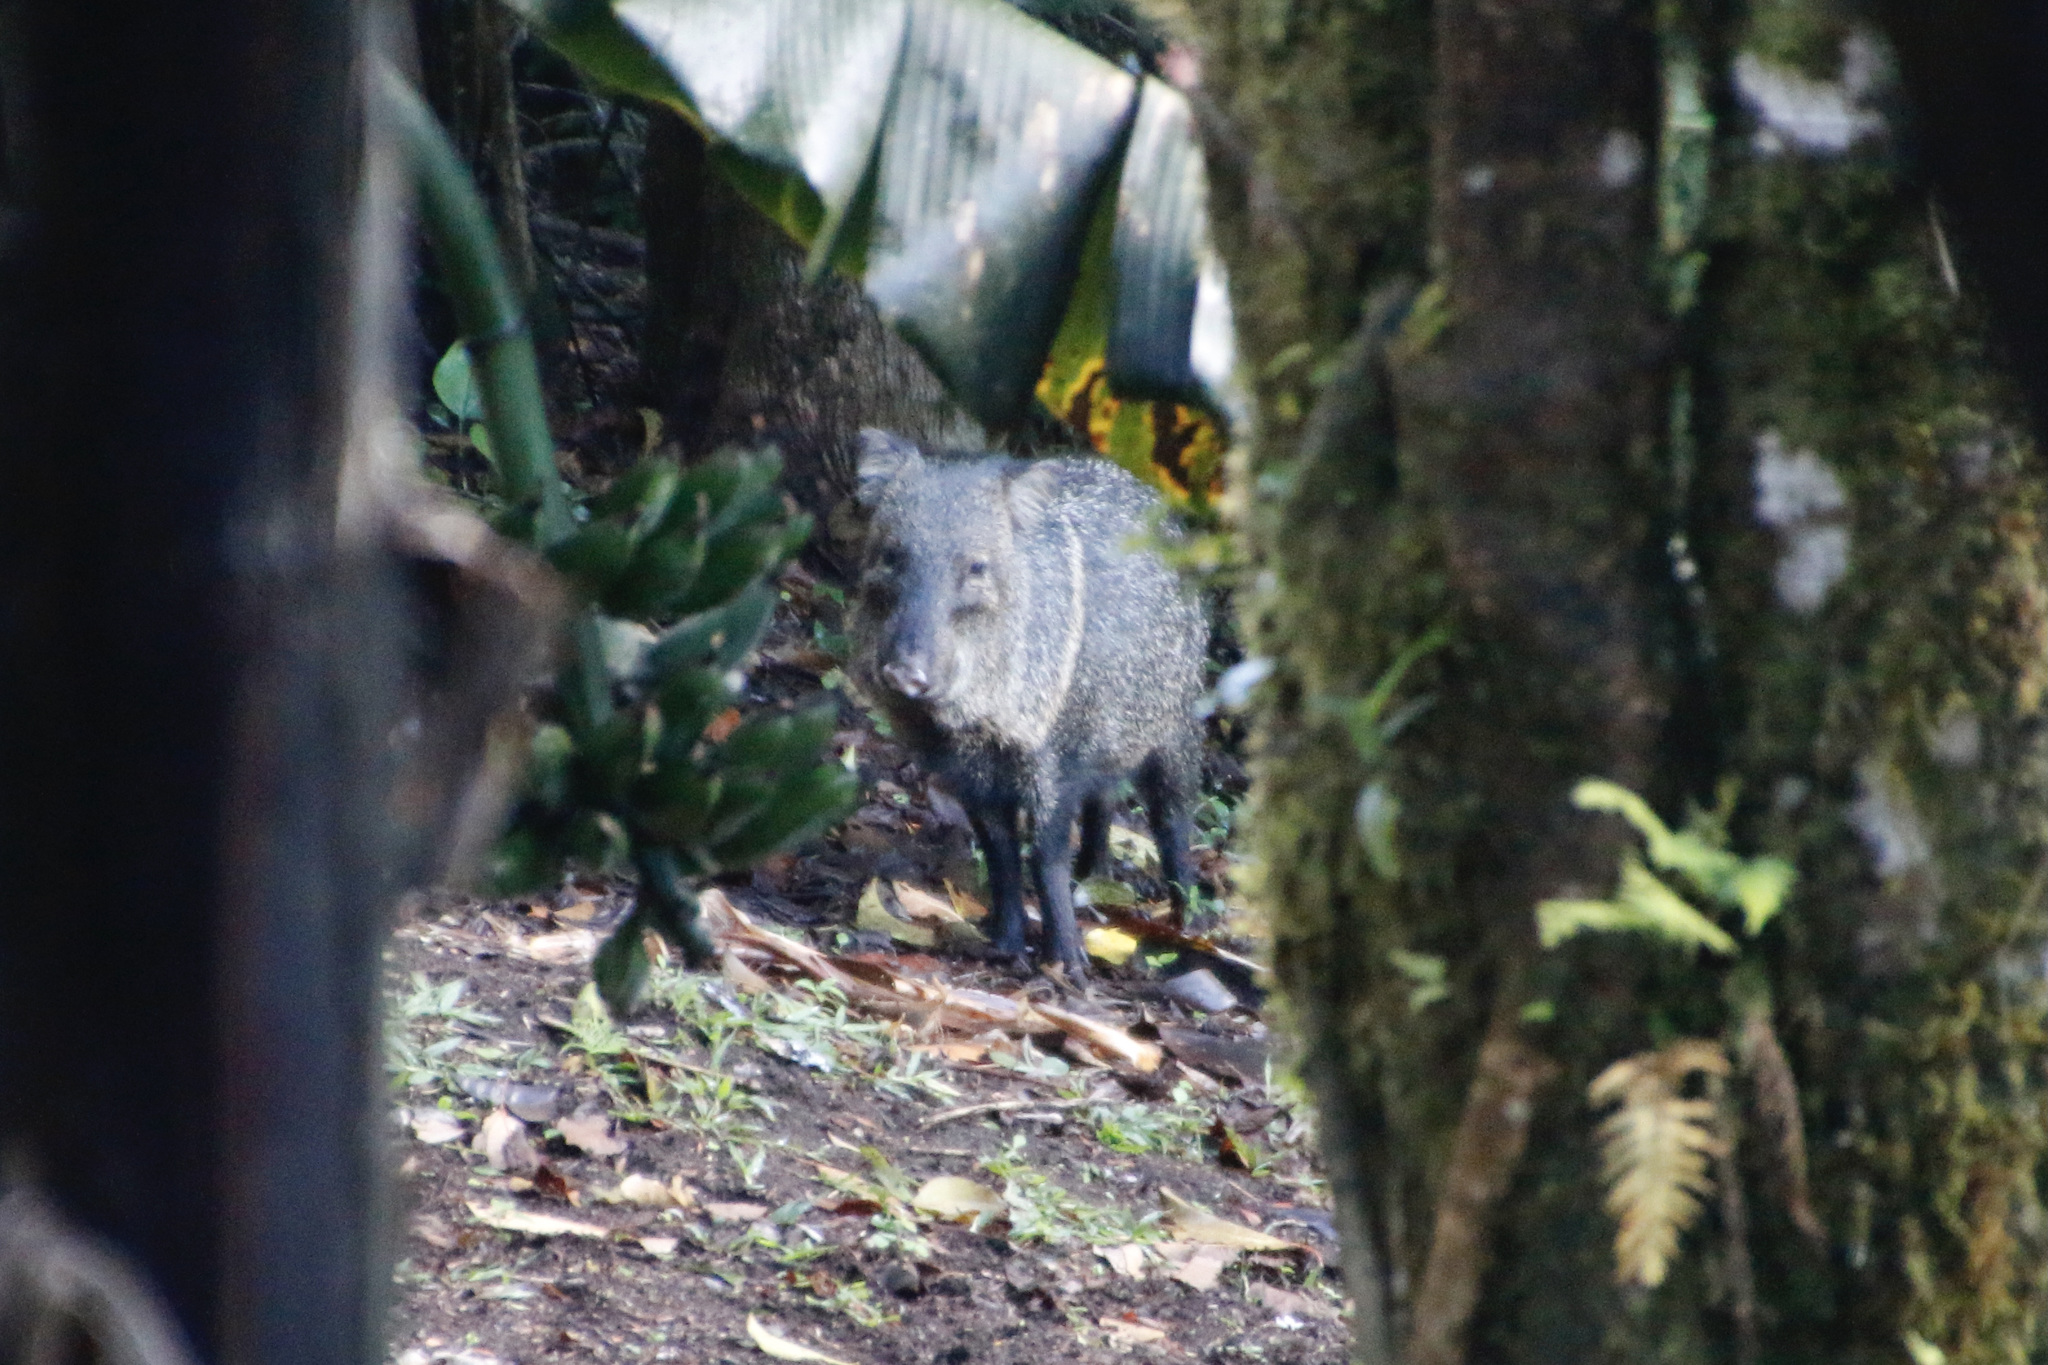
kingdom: Animalia
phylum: Chordata
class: Mammalia
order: Artiodactyla
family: Tayassuidae
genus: Pecari
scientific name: Pecari tajacu
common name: Collared peccary
